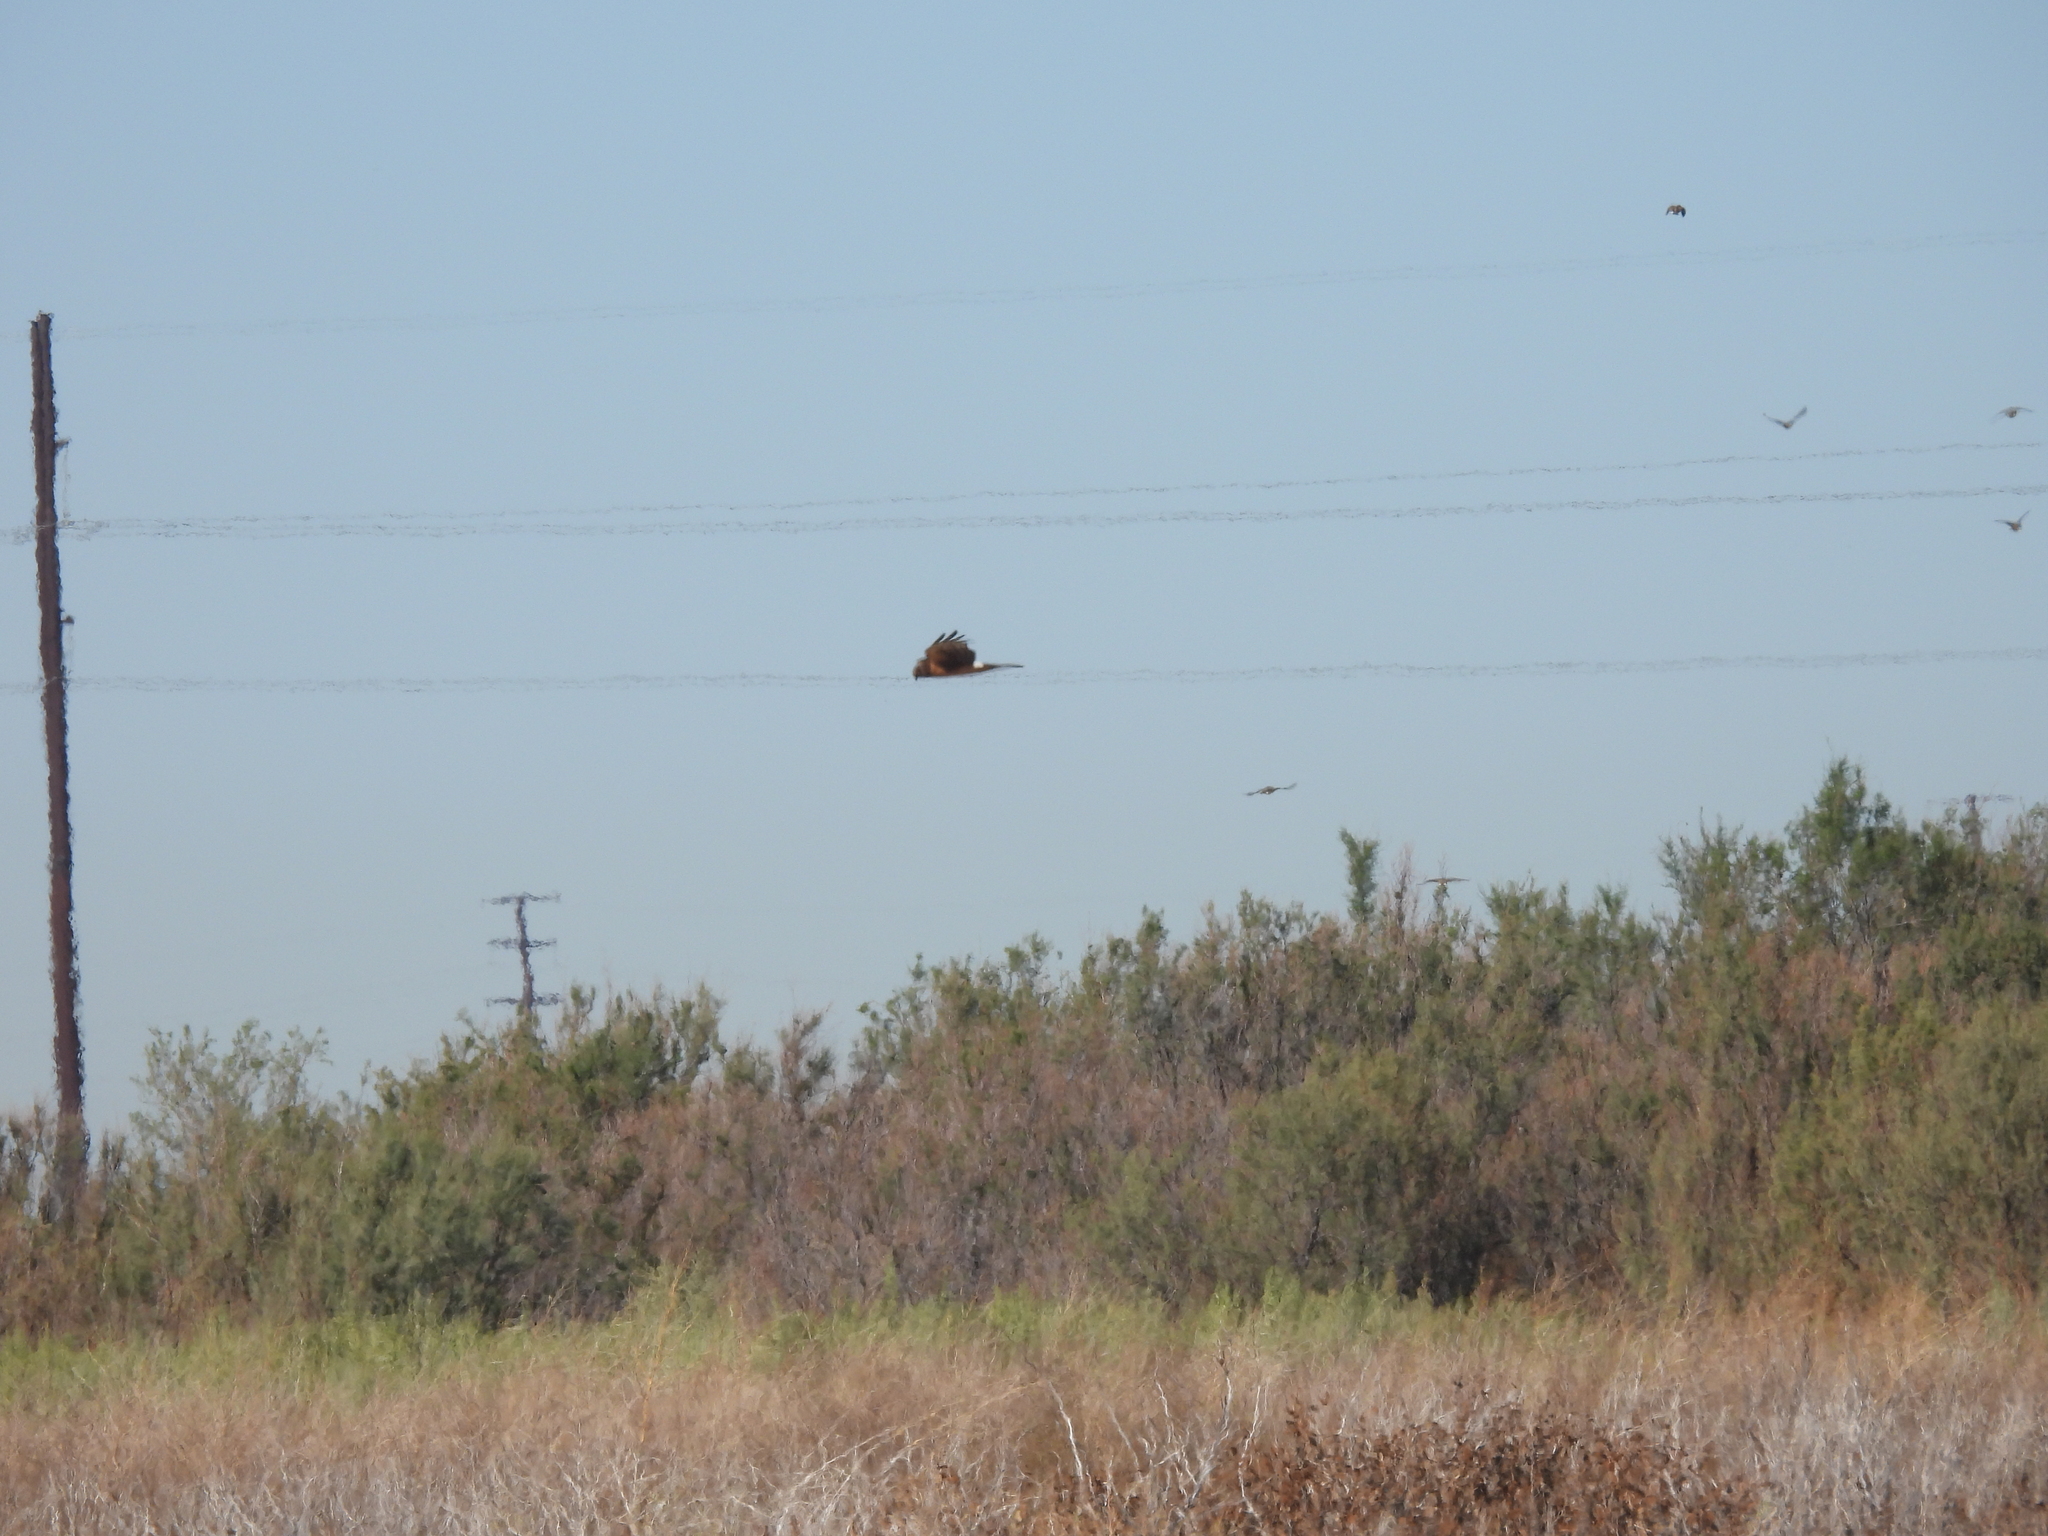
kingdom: Animalia
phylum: Chordata
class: Aves
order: Accipitriformes
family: Accipitridae
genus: Circus
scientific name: Circus cyaneus
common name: Hen harrier
